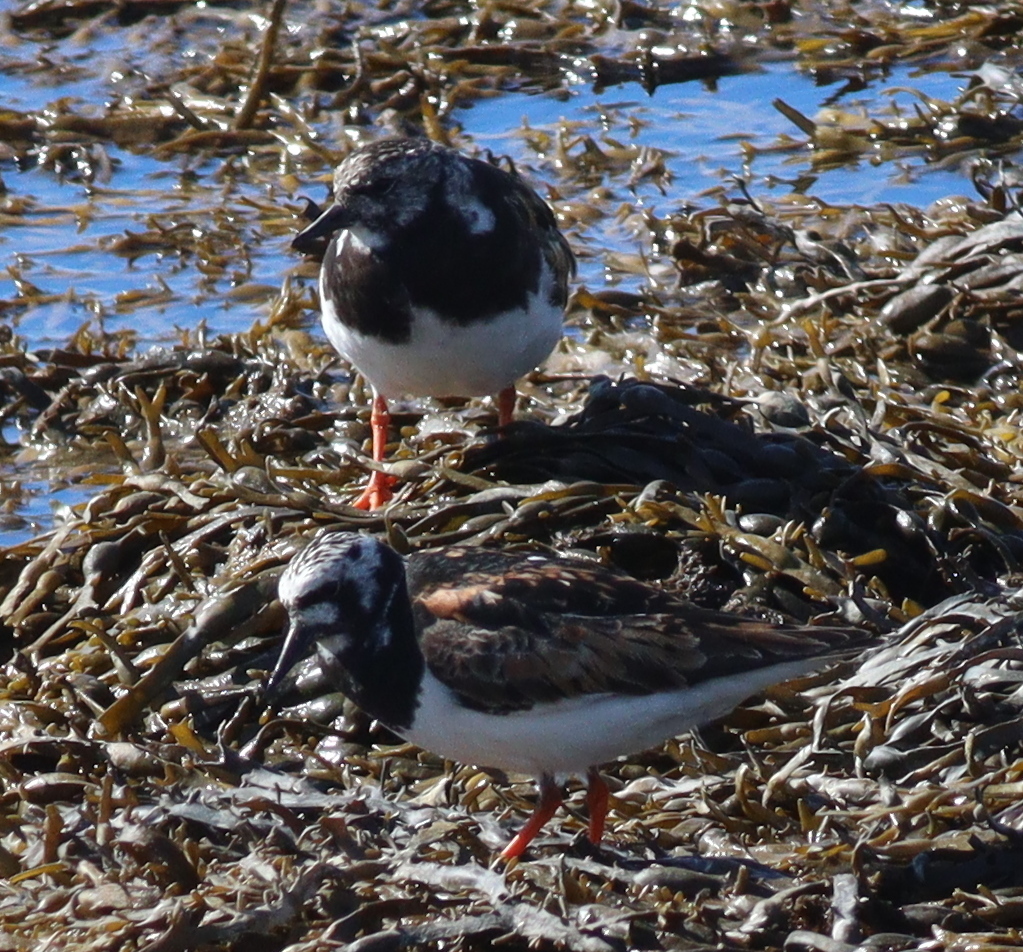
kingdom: Animalia
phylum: Chordata
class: Aves
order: Charadriiformes
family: Scolopacidae
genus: Arenaria
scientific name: Arenaria interpres
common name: Ruddy turnstone
